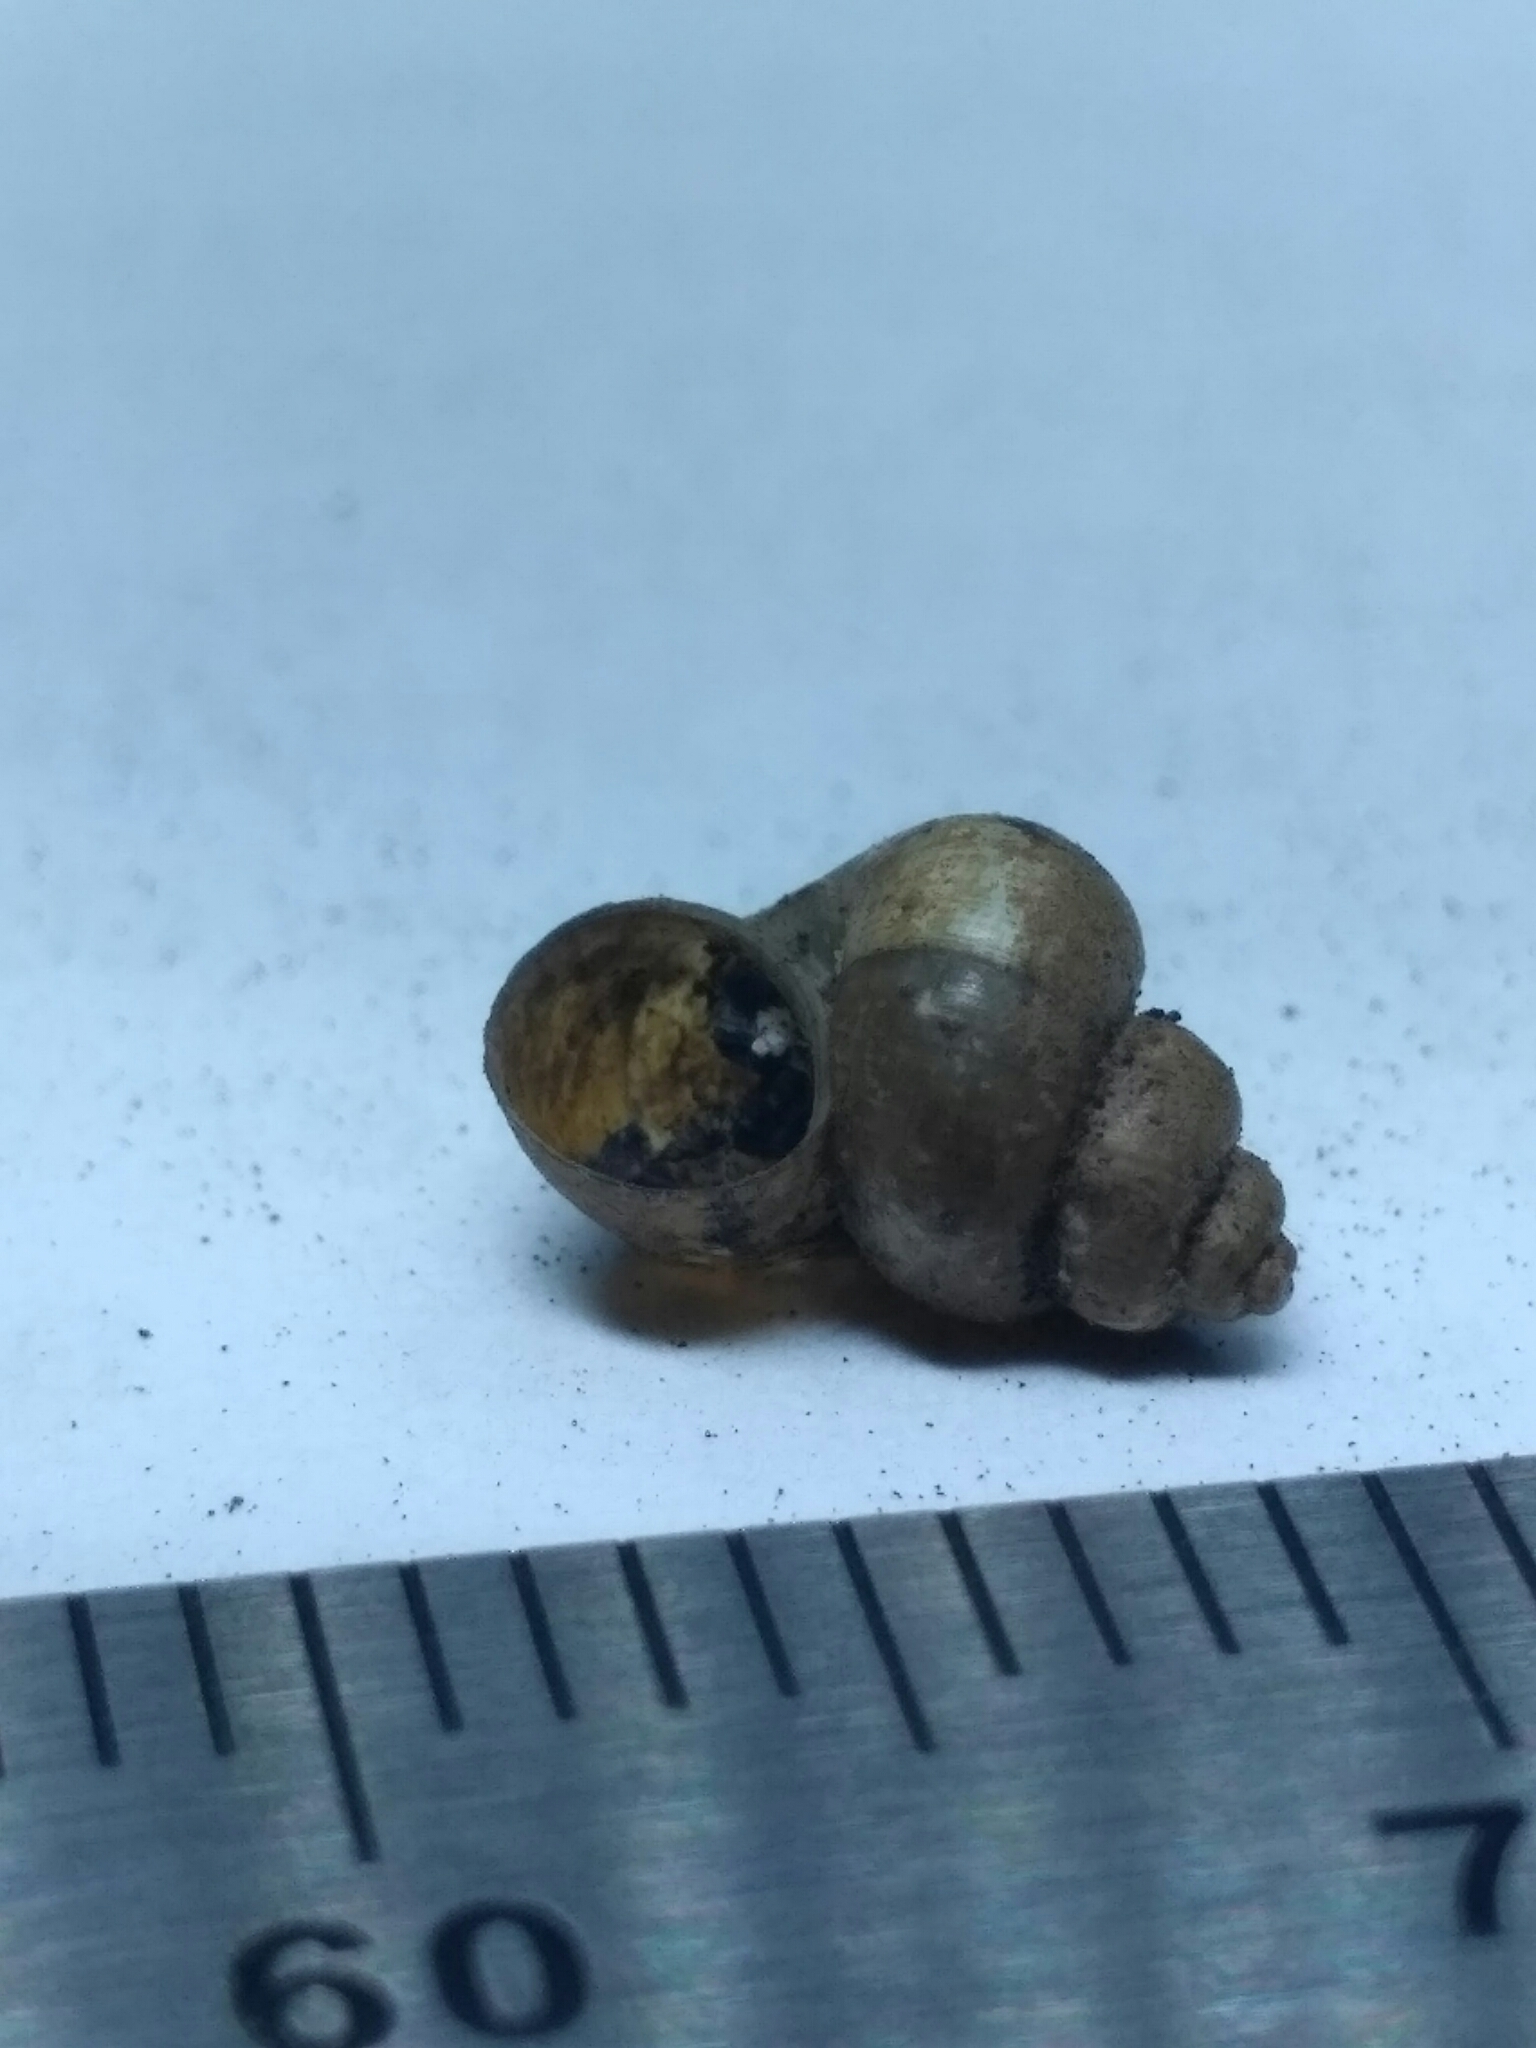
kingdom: Animalia
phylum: Mollusca
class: Gastropoda
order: Littorinimorpha
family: Bithyniidae
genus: Bithynia
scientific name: Bithynia transsilvanica
